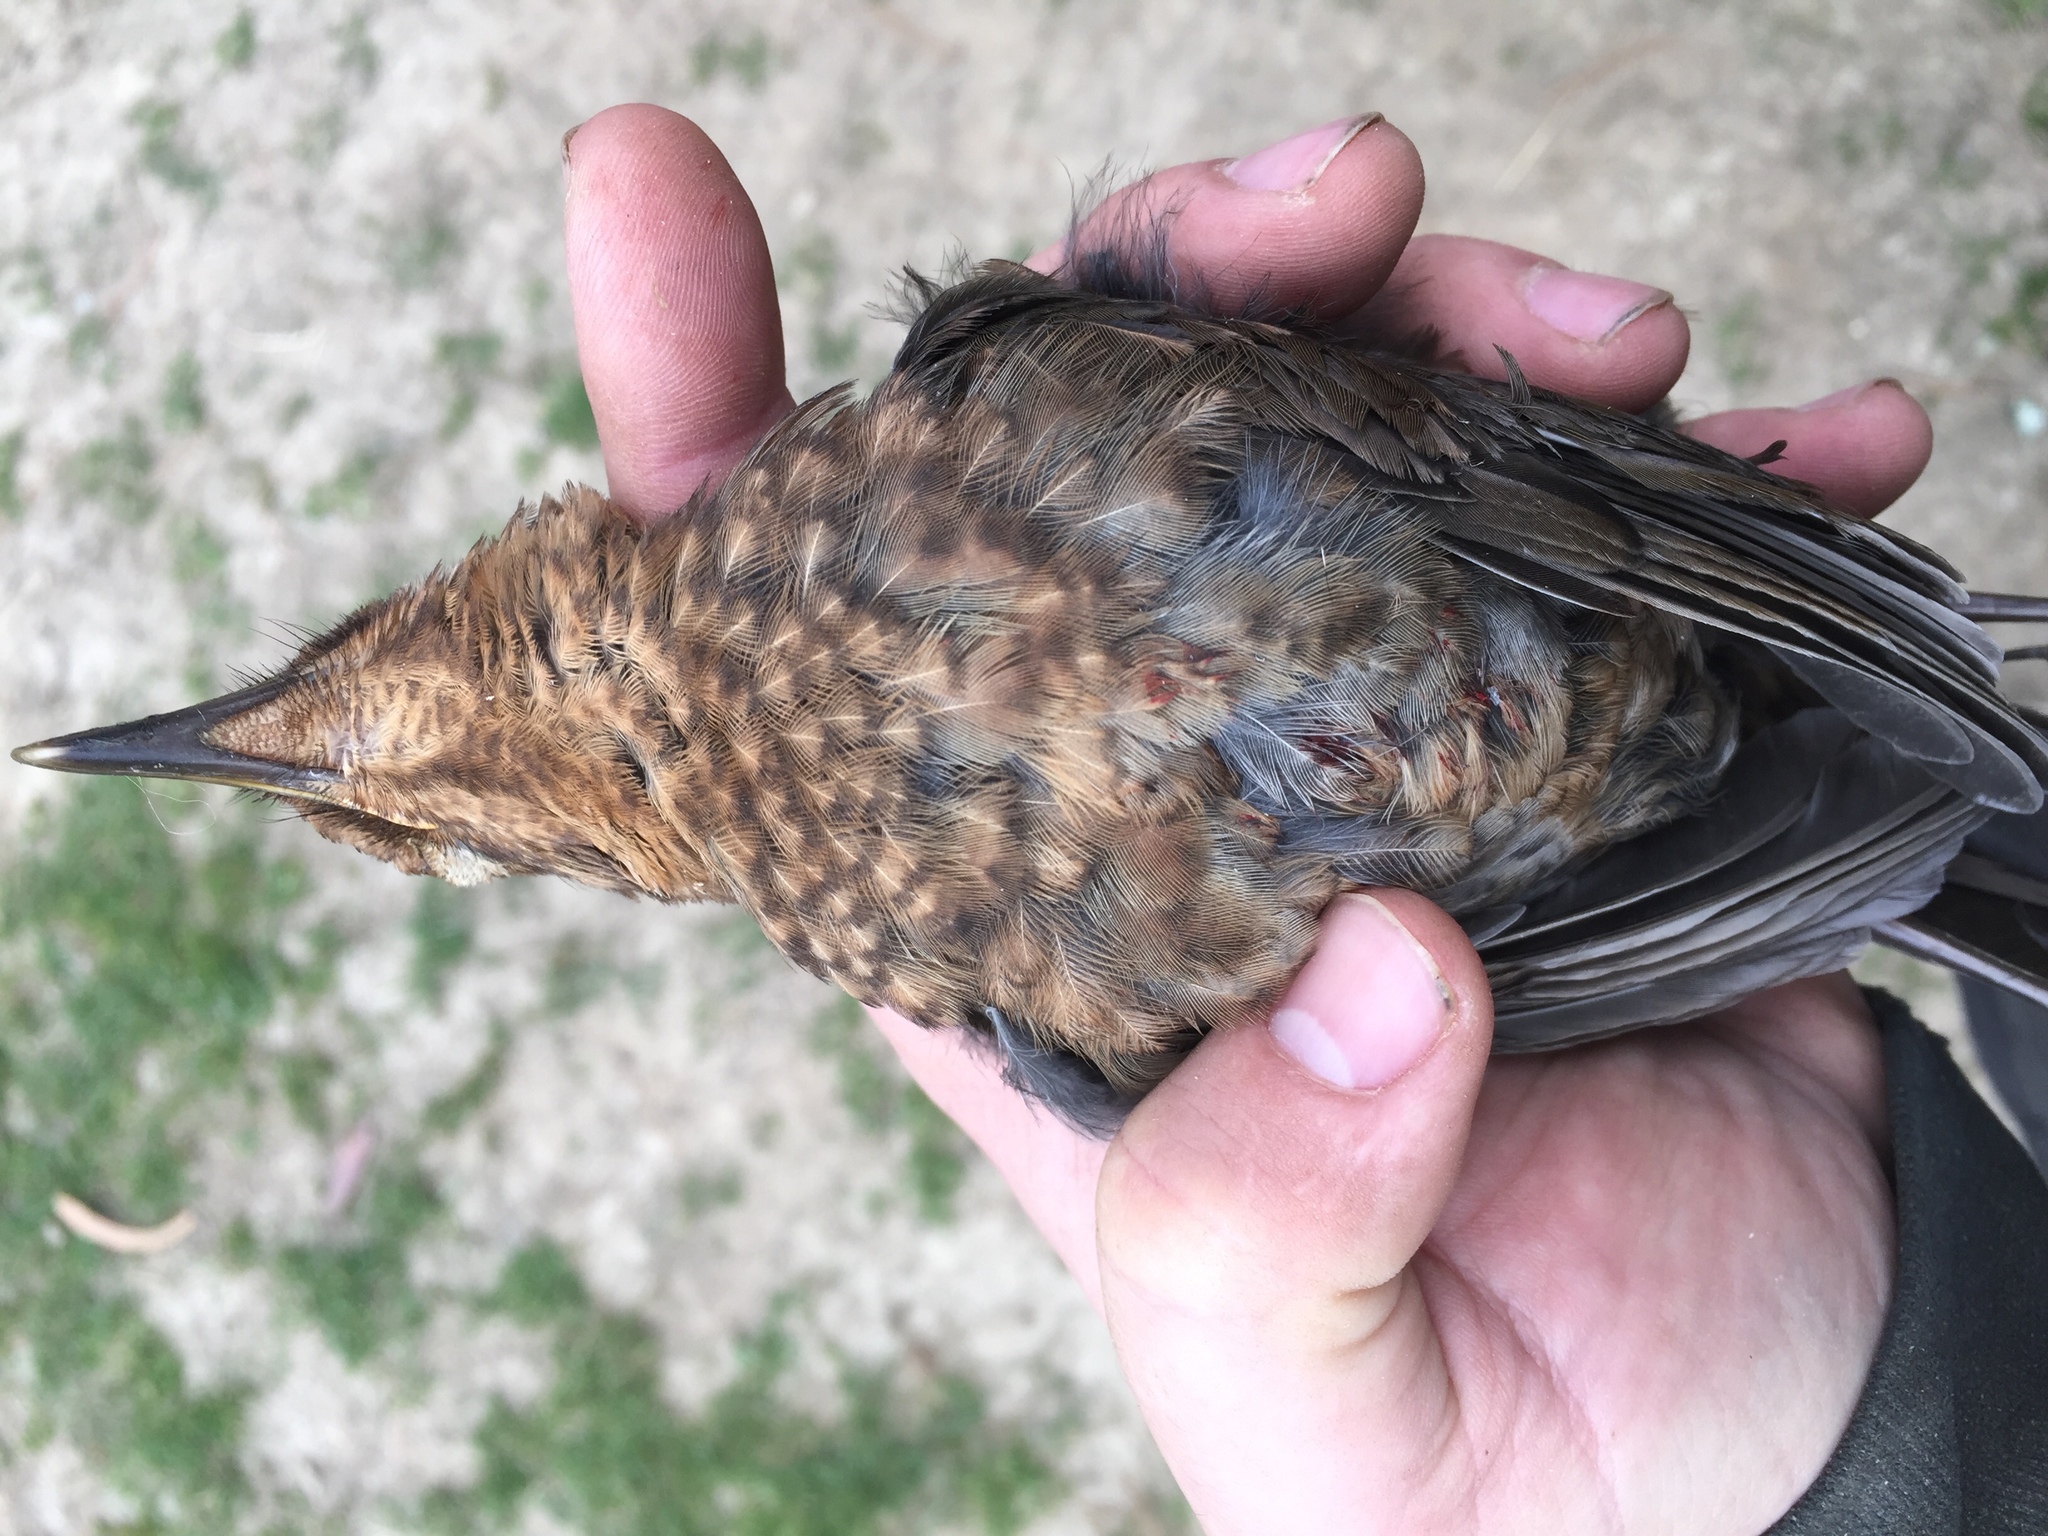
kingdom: Animalia
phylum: Chordata
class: Aves
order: Passeriformes
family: Turdidae
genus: Turdus
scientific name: Turdus merula
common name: Common blackbird
